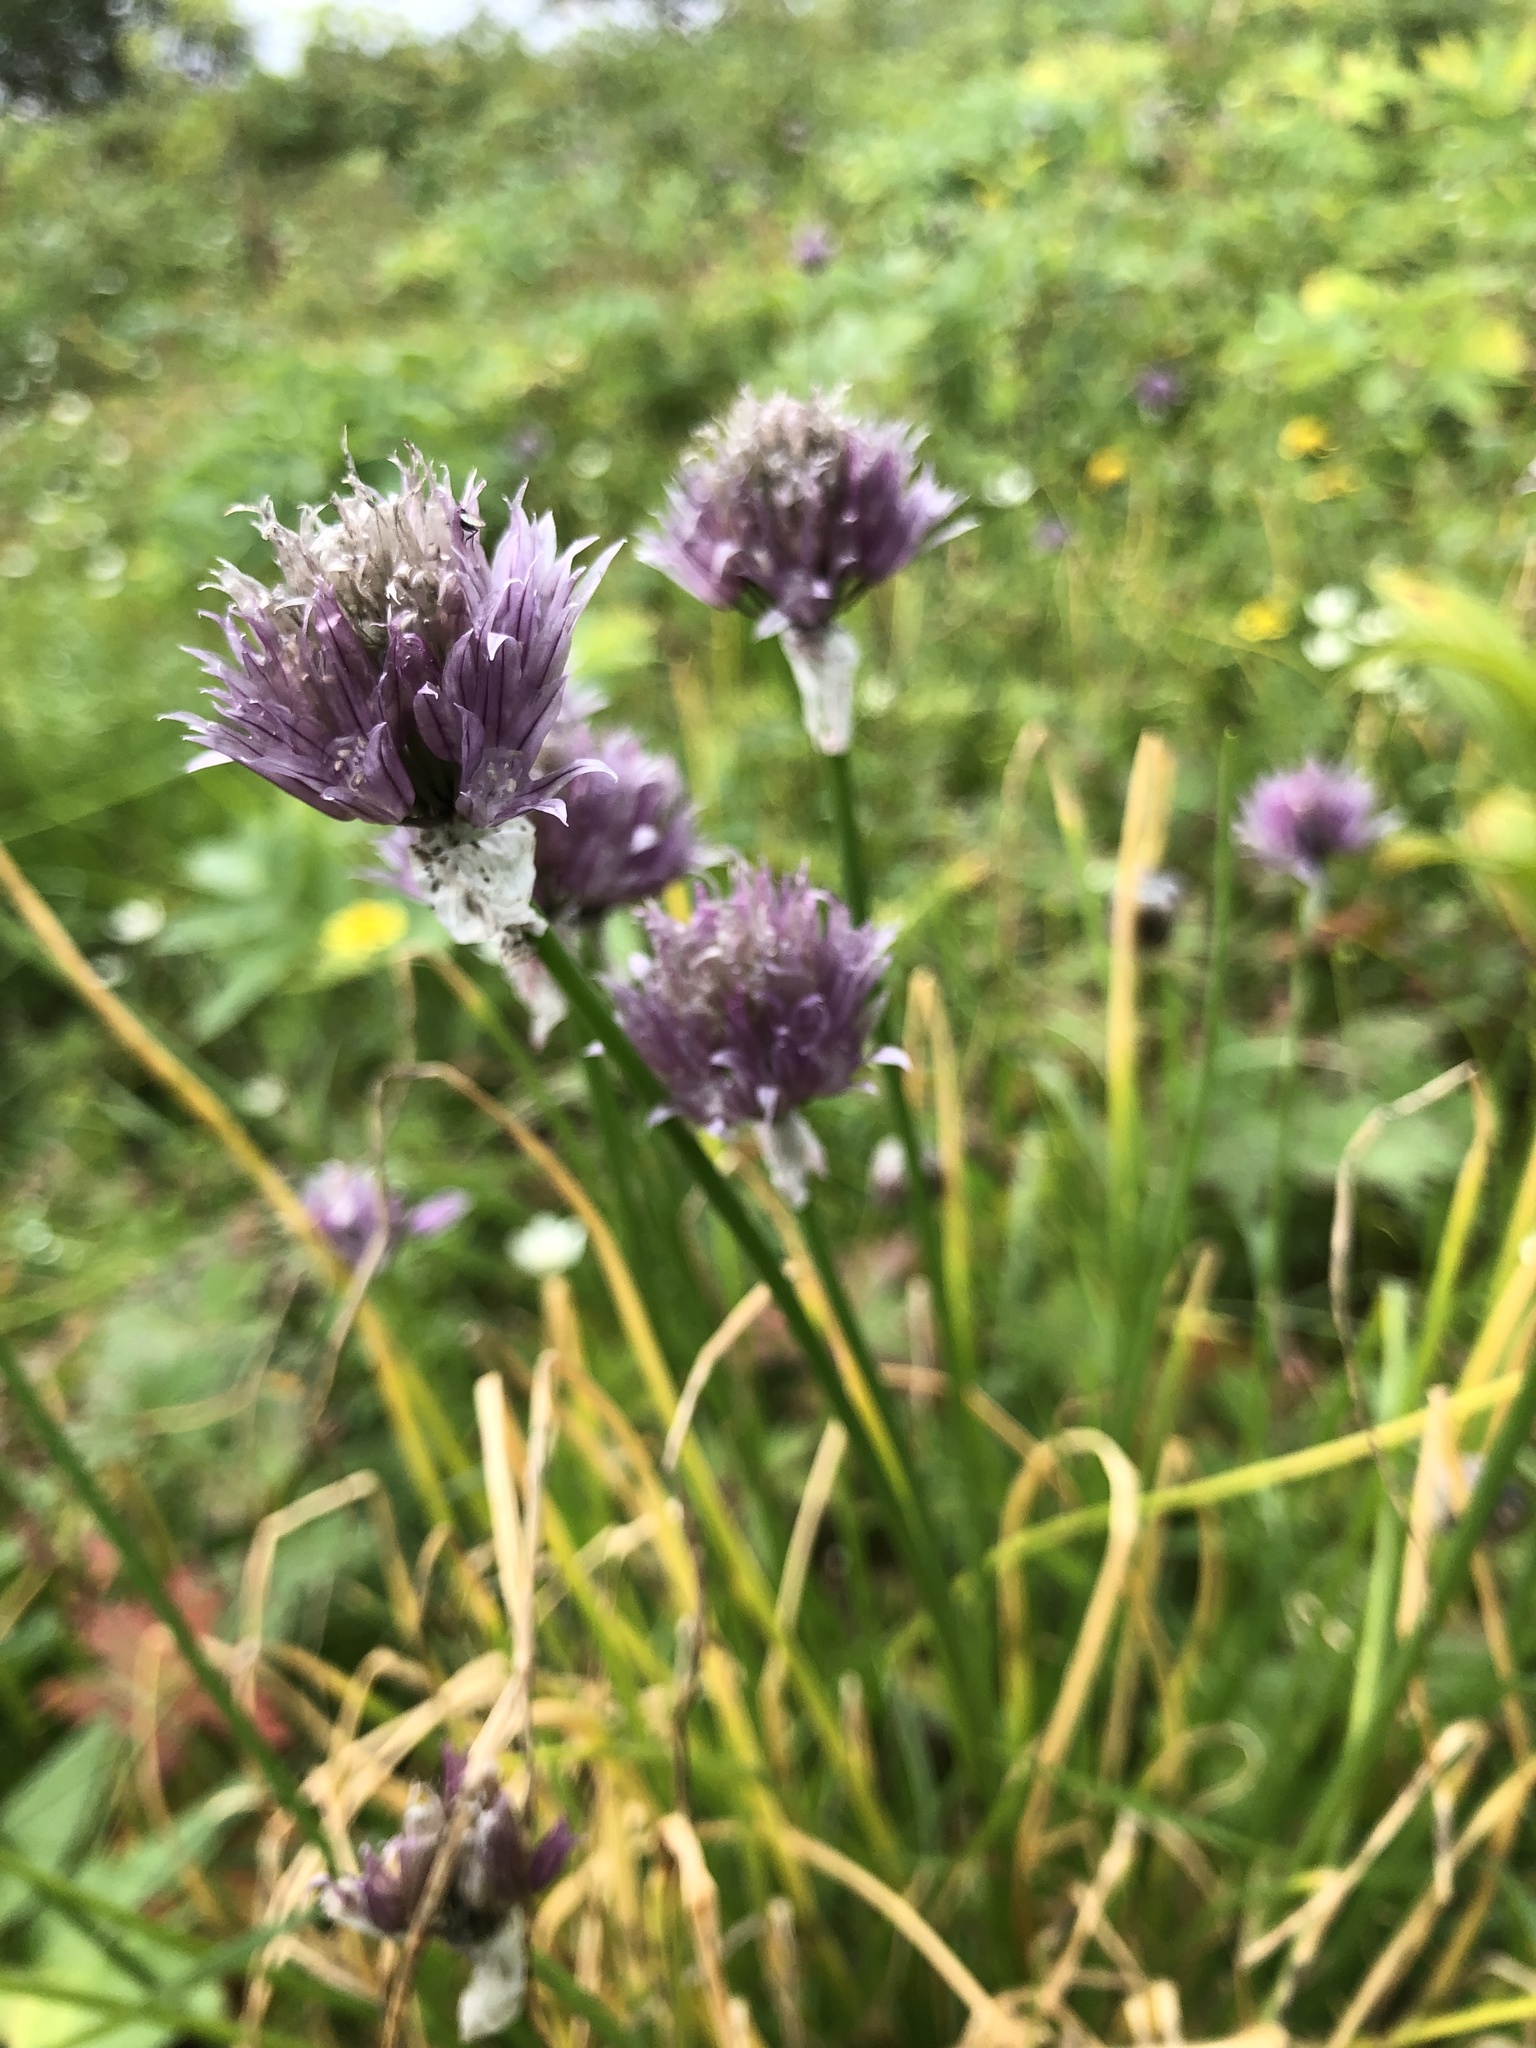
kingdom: Plantae
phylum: Tracheophyta
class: Liliopsida
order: Asparagales
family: Amaryllidaceae
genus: Allium
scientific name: Allium schoenoprasum
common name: Chives
